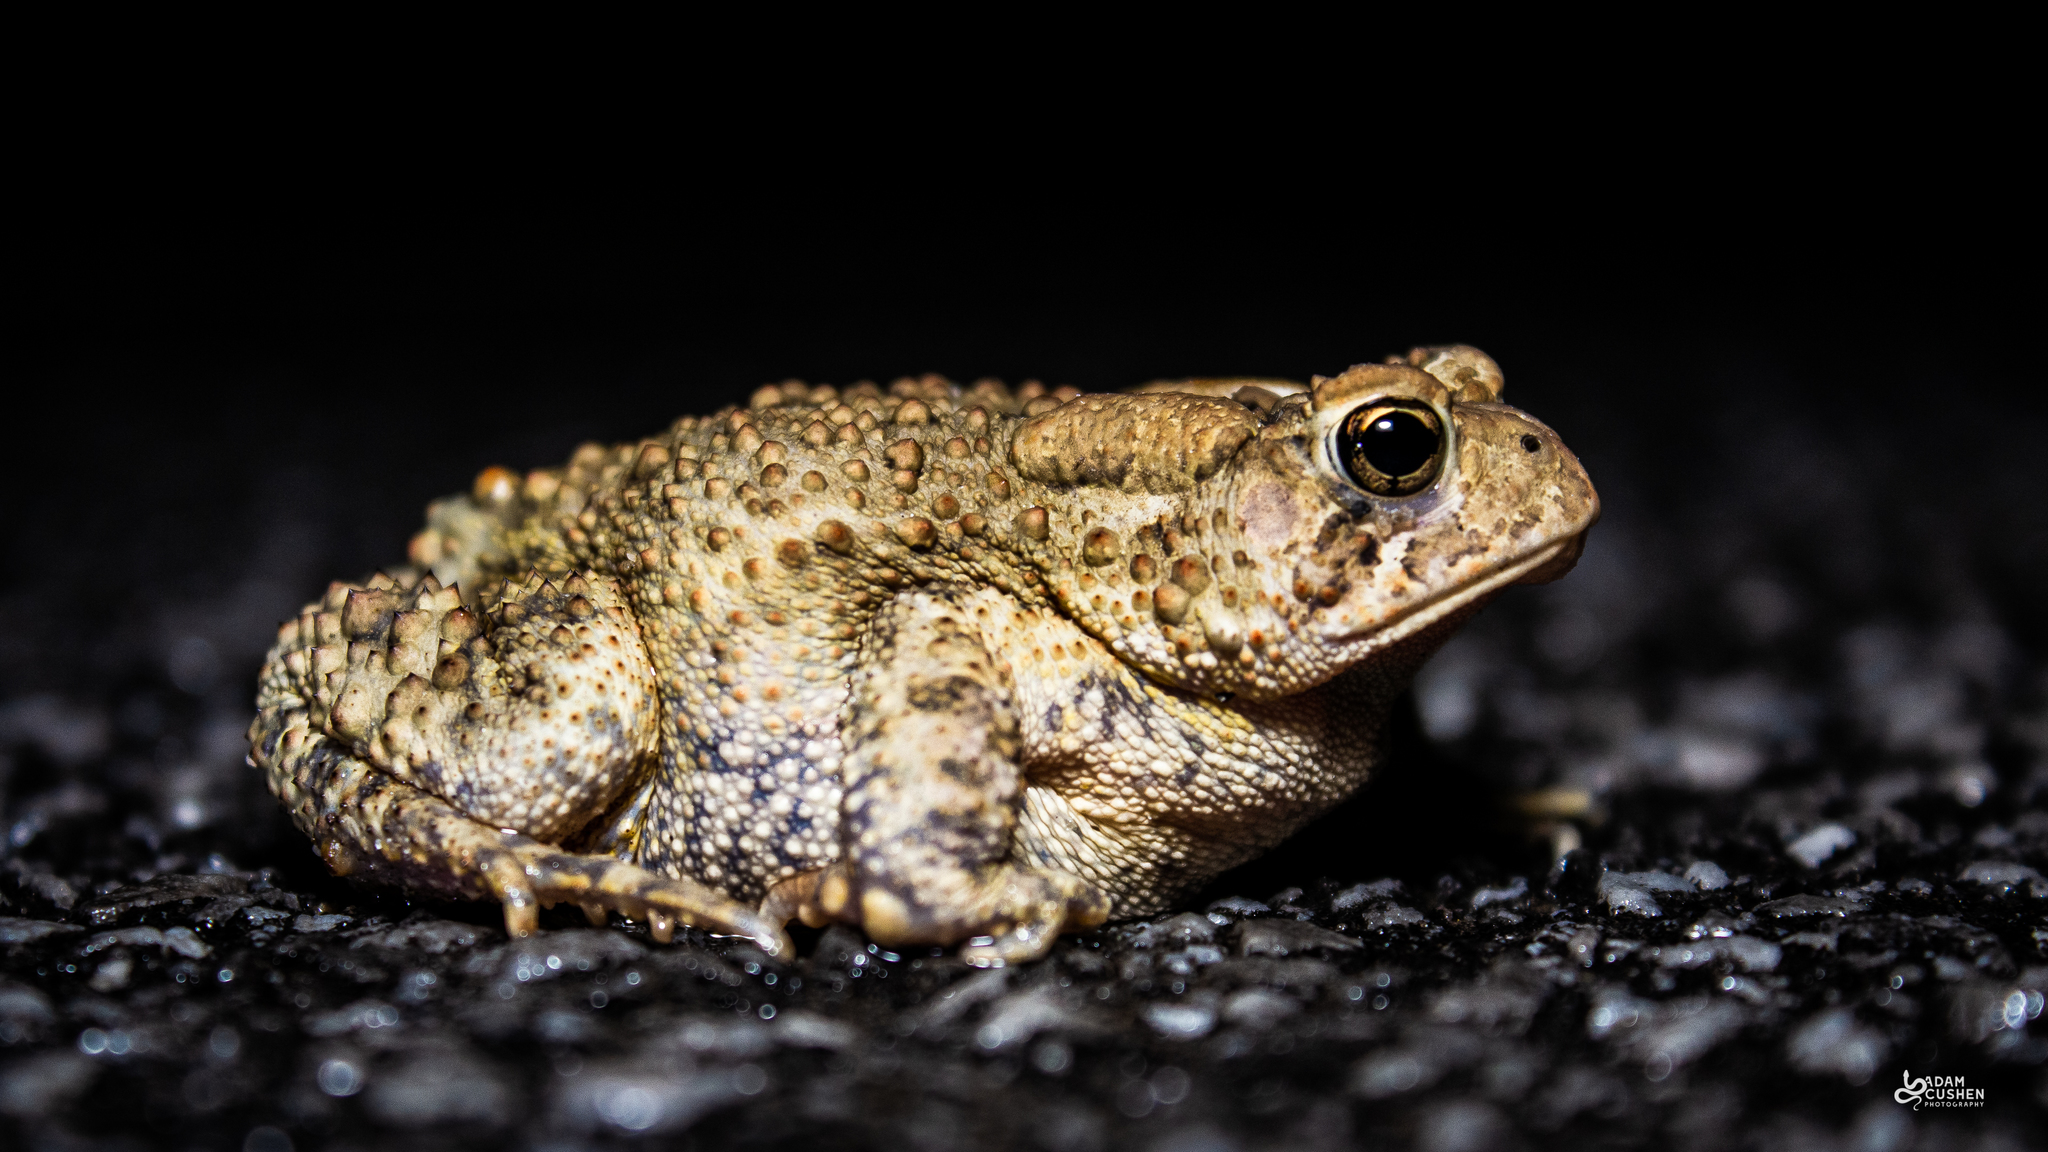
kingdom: Animalia
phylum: Chordata
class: Amphibia
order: Anura
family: Bufonidae
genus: Anaxyrus
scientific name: Anaxyrus americanus
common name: American toad
